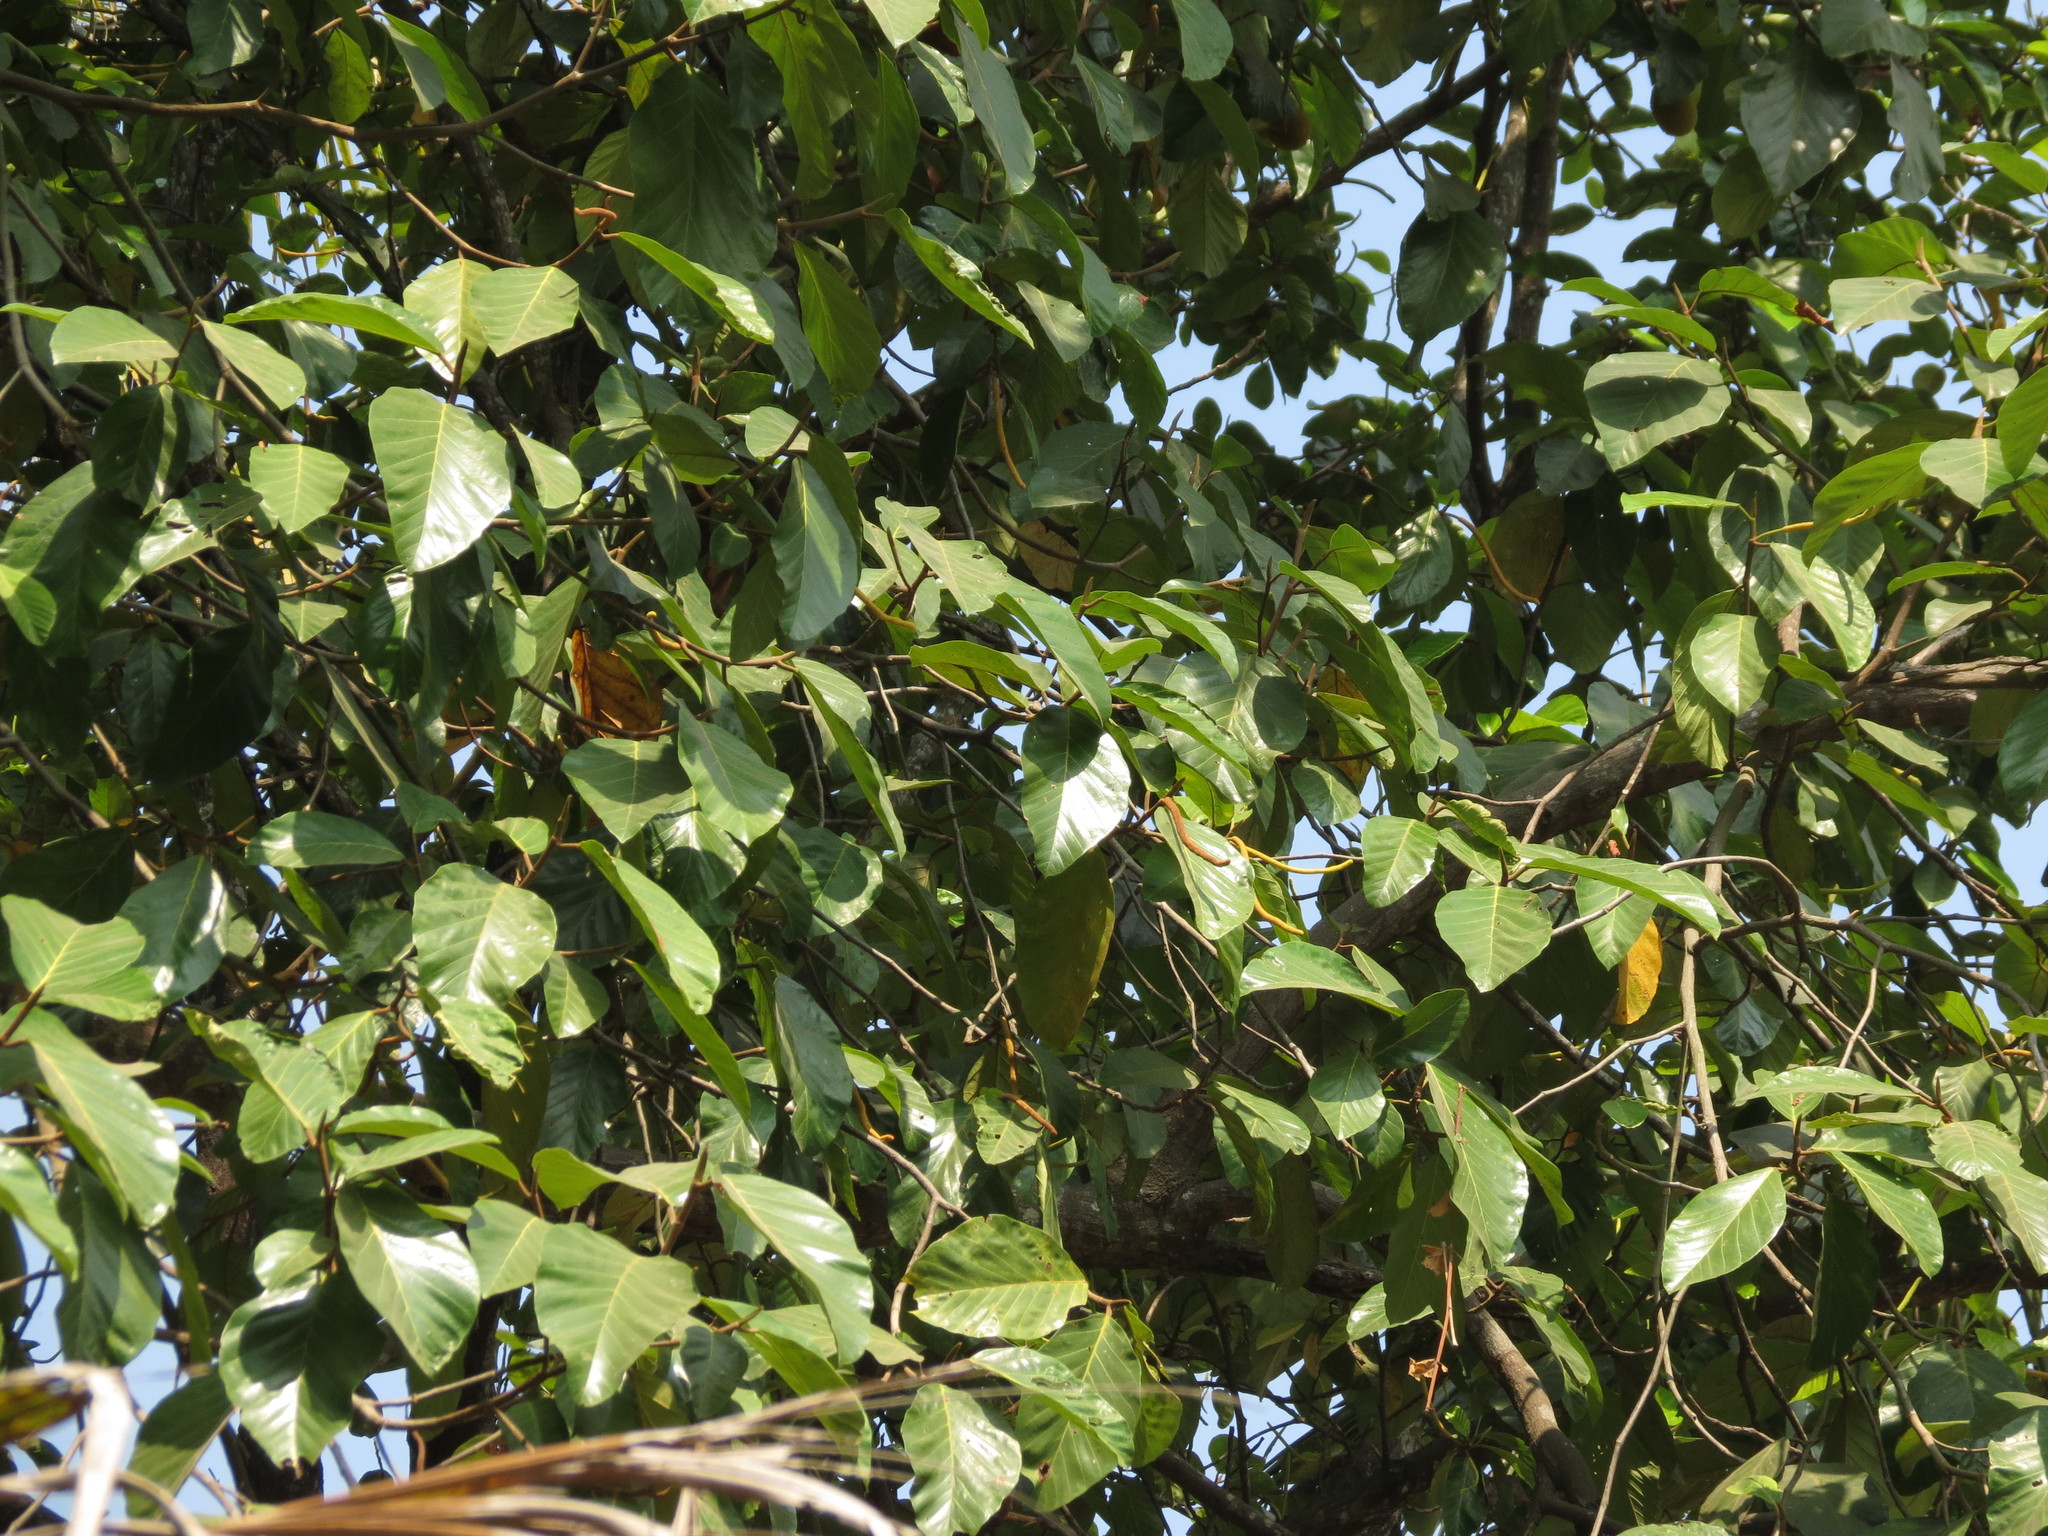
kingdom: Plantae
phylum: Tracheophyta
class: Magnoliopsida
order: Rosales
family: Moraceae
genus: Artocarpus
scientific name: Artocarpus hirsutus
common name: Hairy bread-fruit tree
